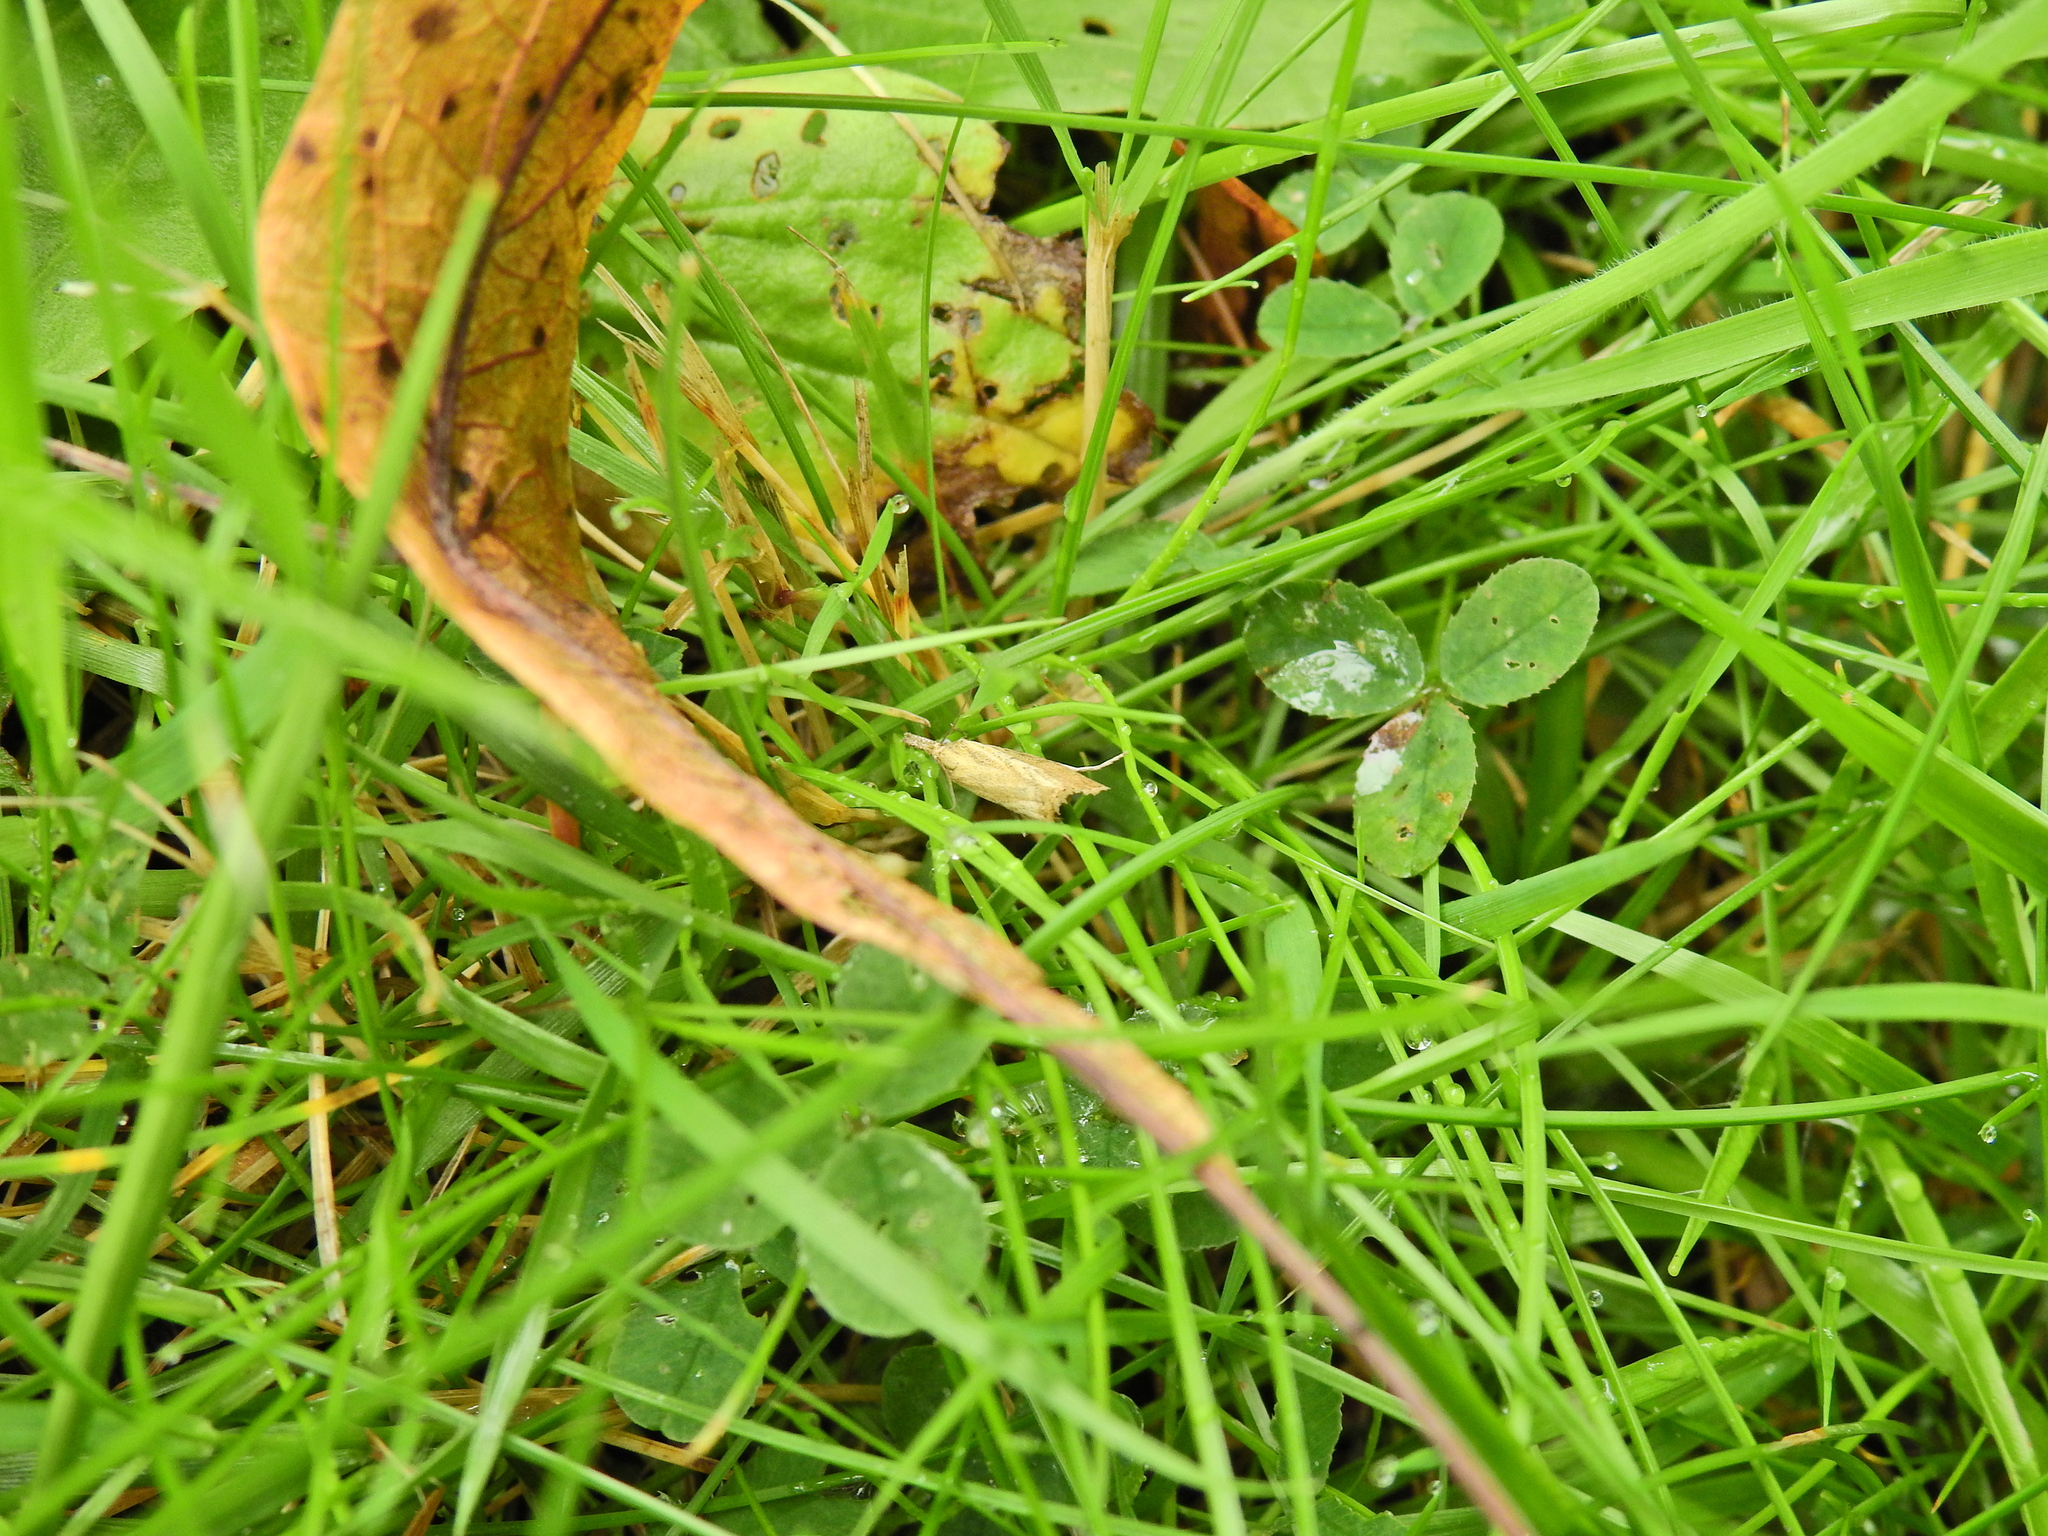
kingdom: Animalia
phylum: Arthropoda
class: Insecta
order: Lepidoptera
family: Crambidae
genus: Agriphila
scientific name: Agriphila straminella
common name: Straw grass-veneer
